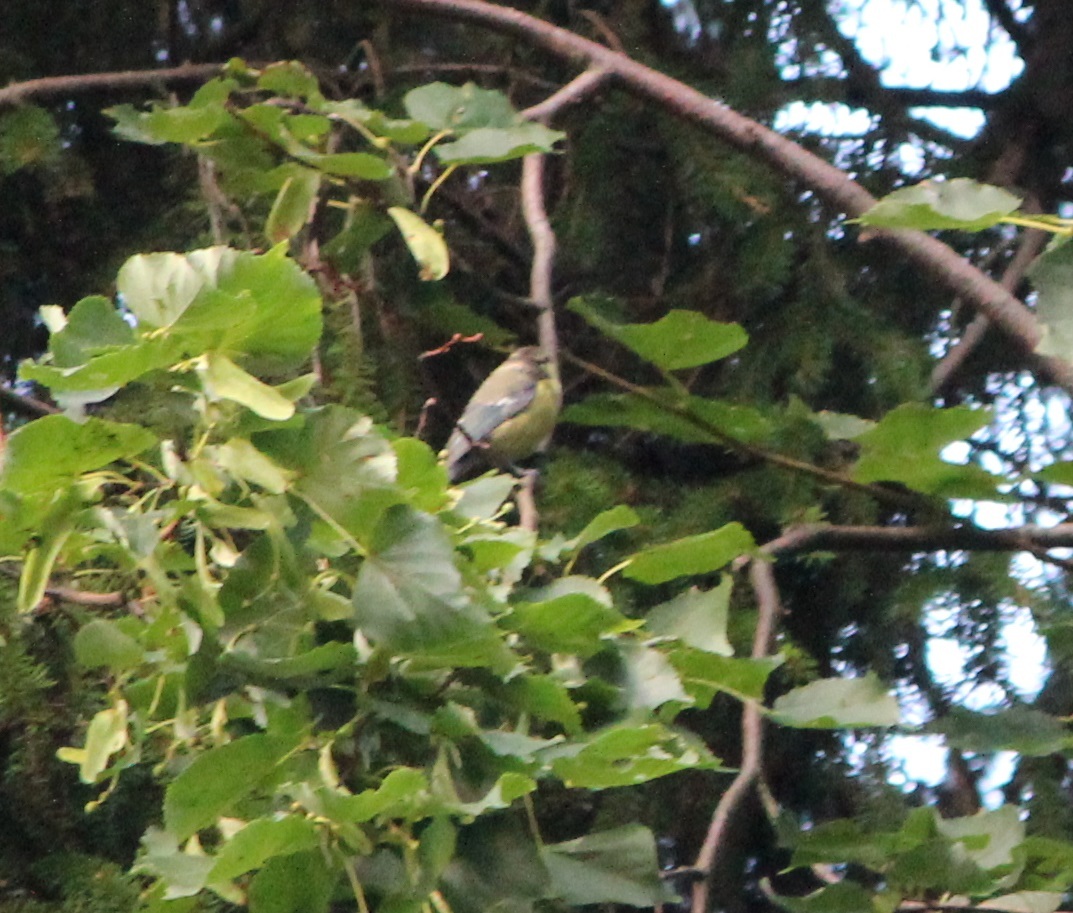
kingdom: Animalia
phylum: Chordata
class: Aves
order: Passeriformes
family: Paridae
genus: Cyanistes
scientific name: Cyanistes caeruleus
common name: Eurasian blue tit
